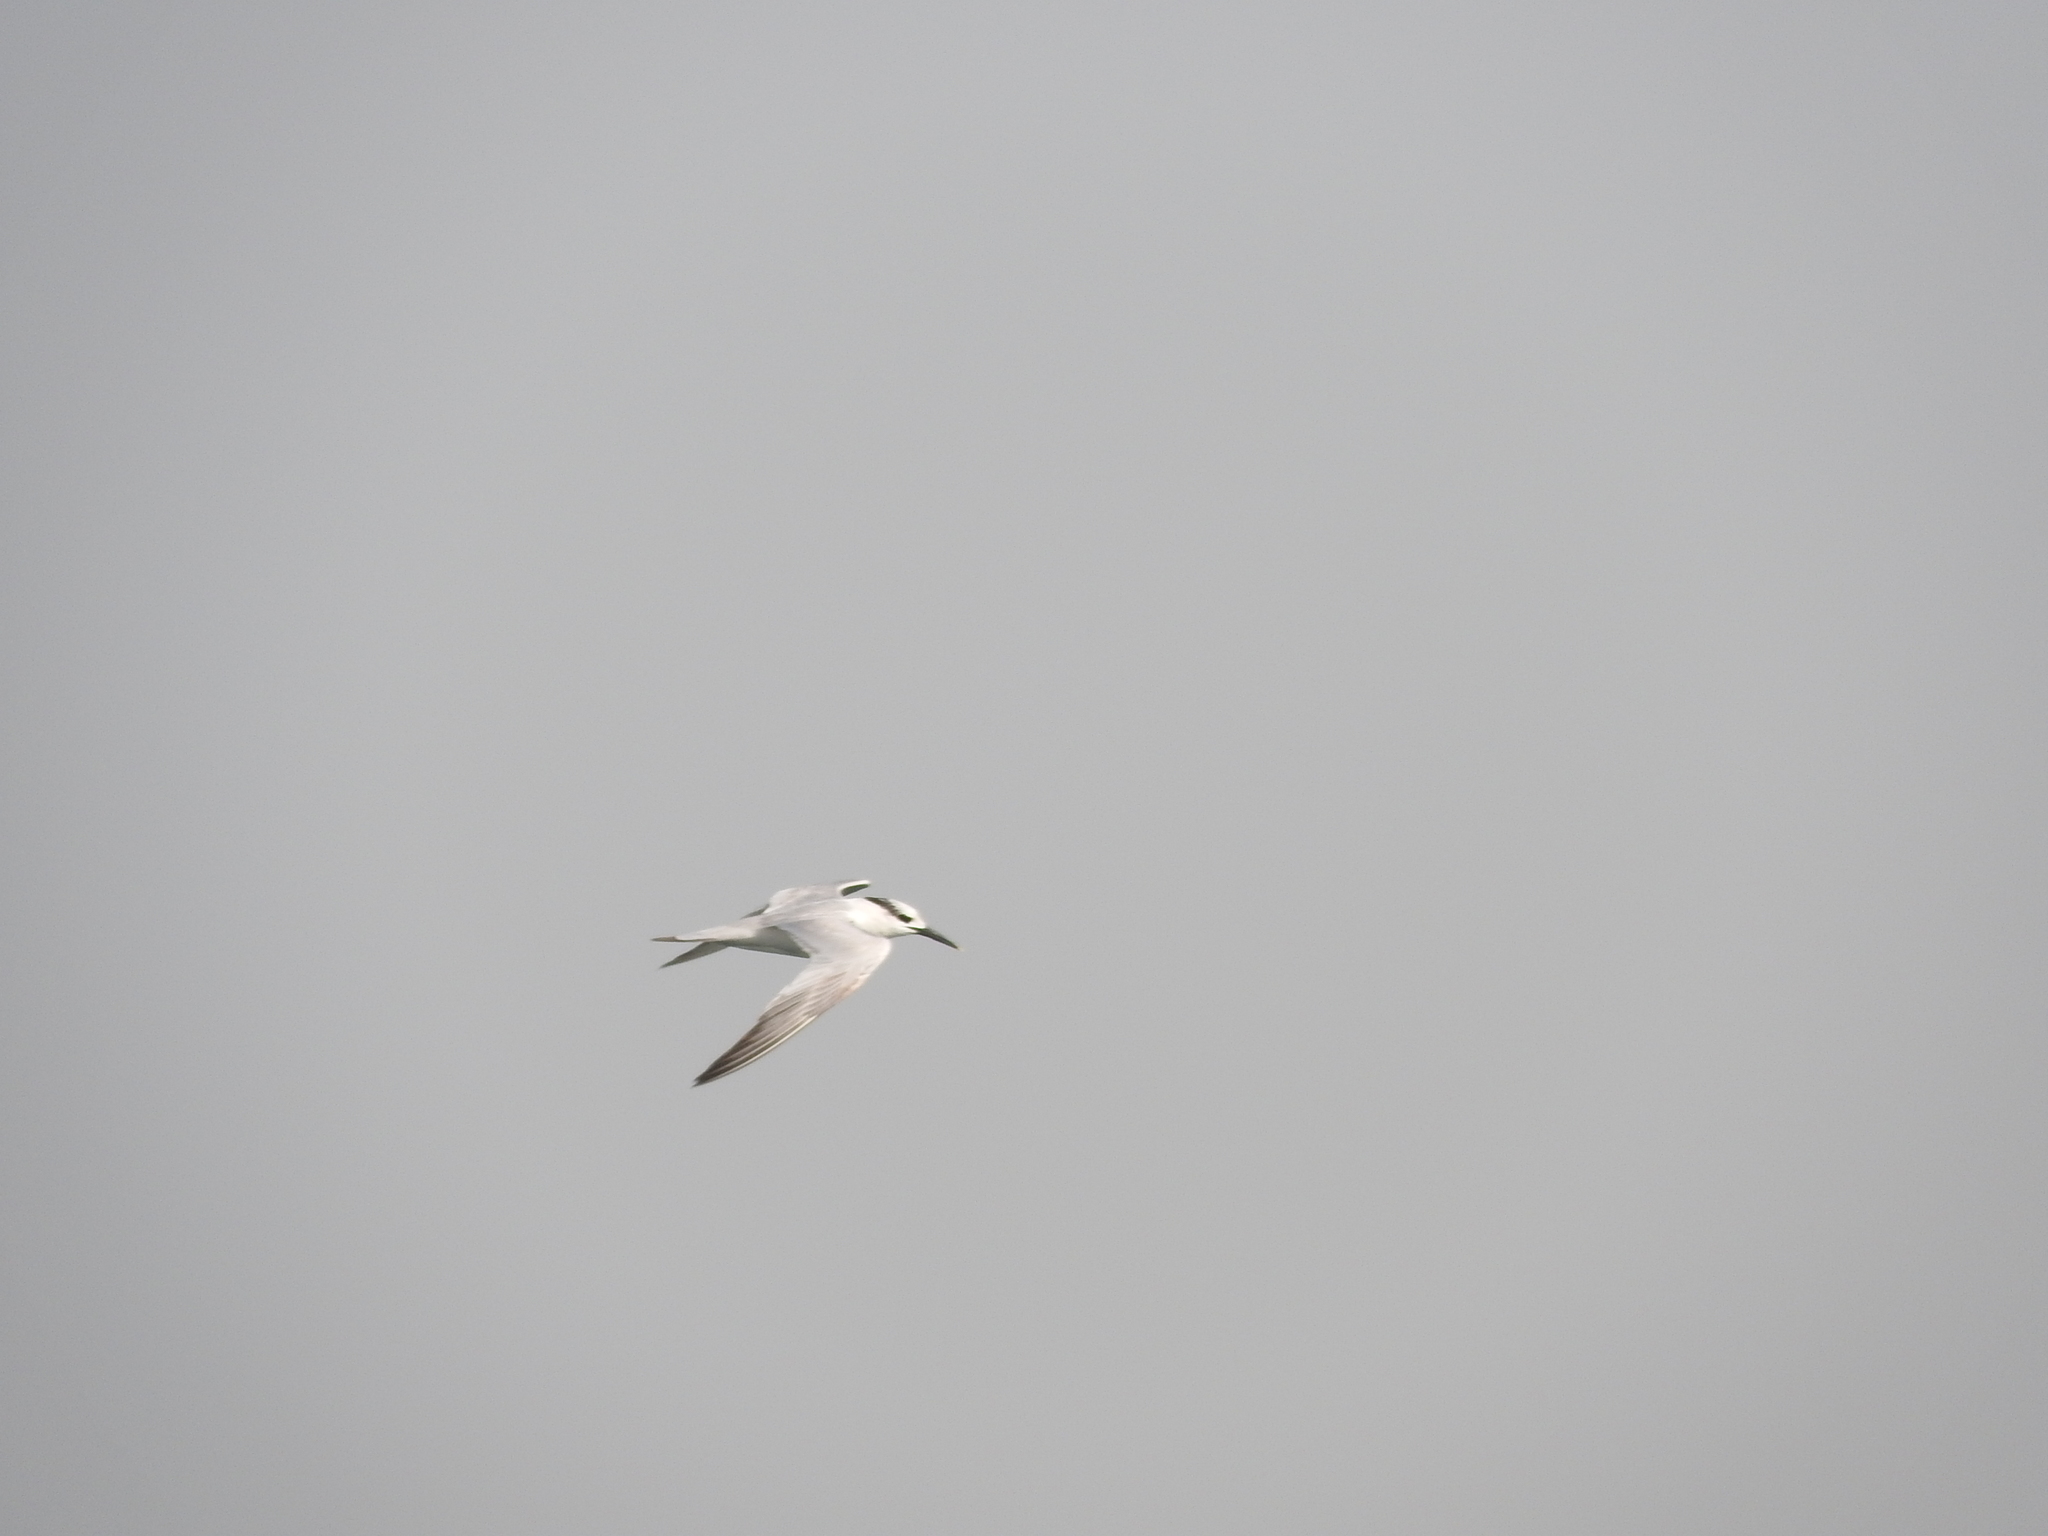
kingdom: Animalia
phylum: Chordata
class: Aves
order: Charadriiformes
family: Laridae
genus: Thalasseus
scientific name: Thalasseus sandvicensis
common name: Sandwich tern
